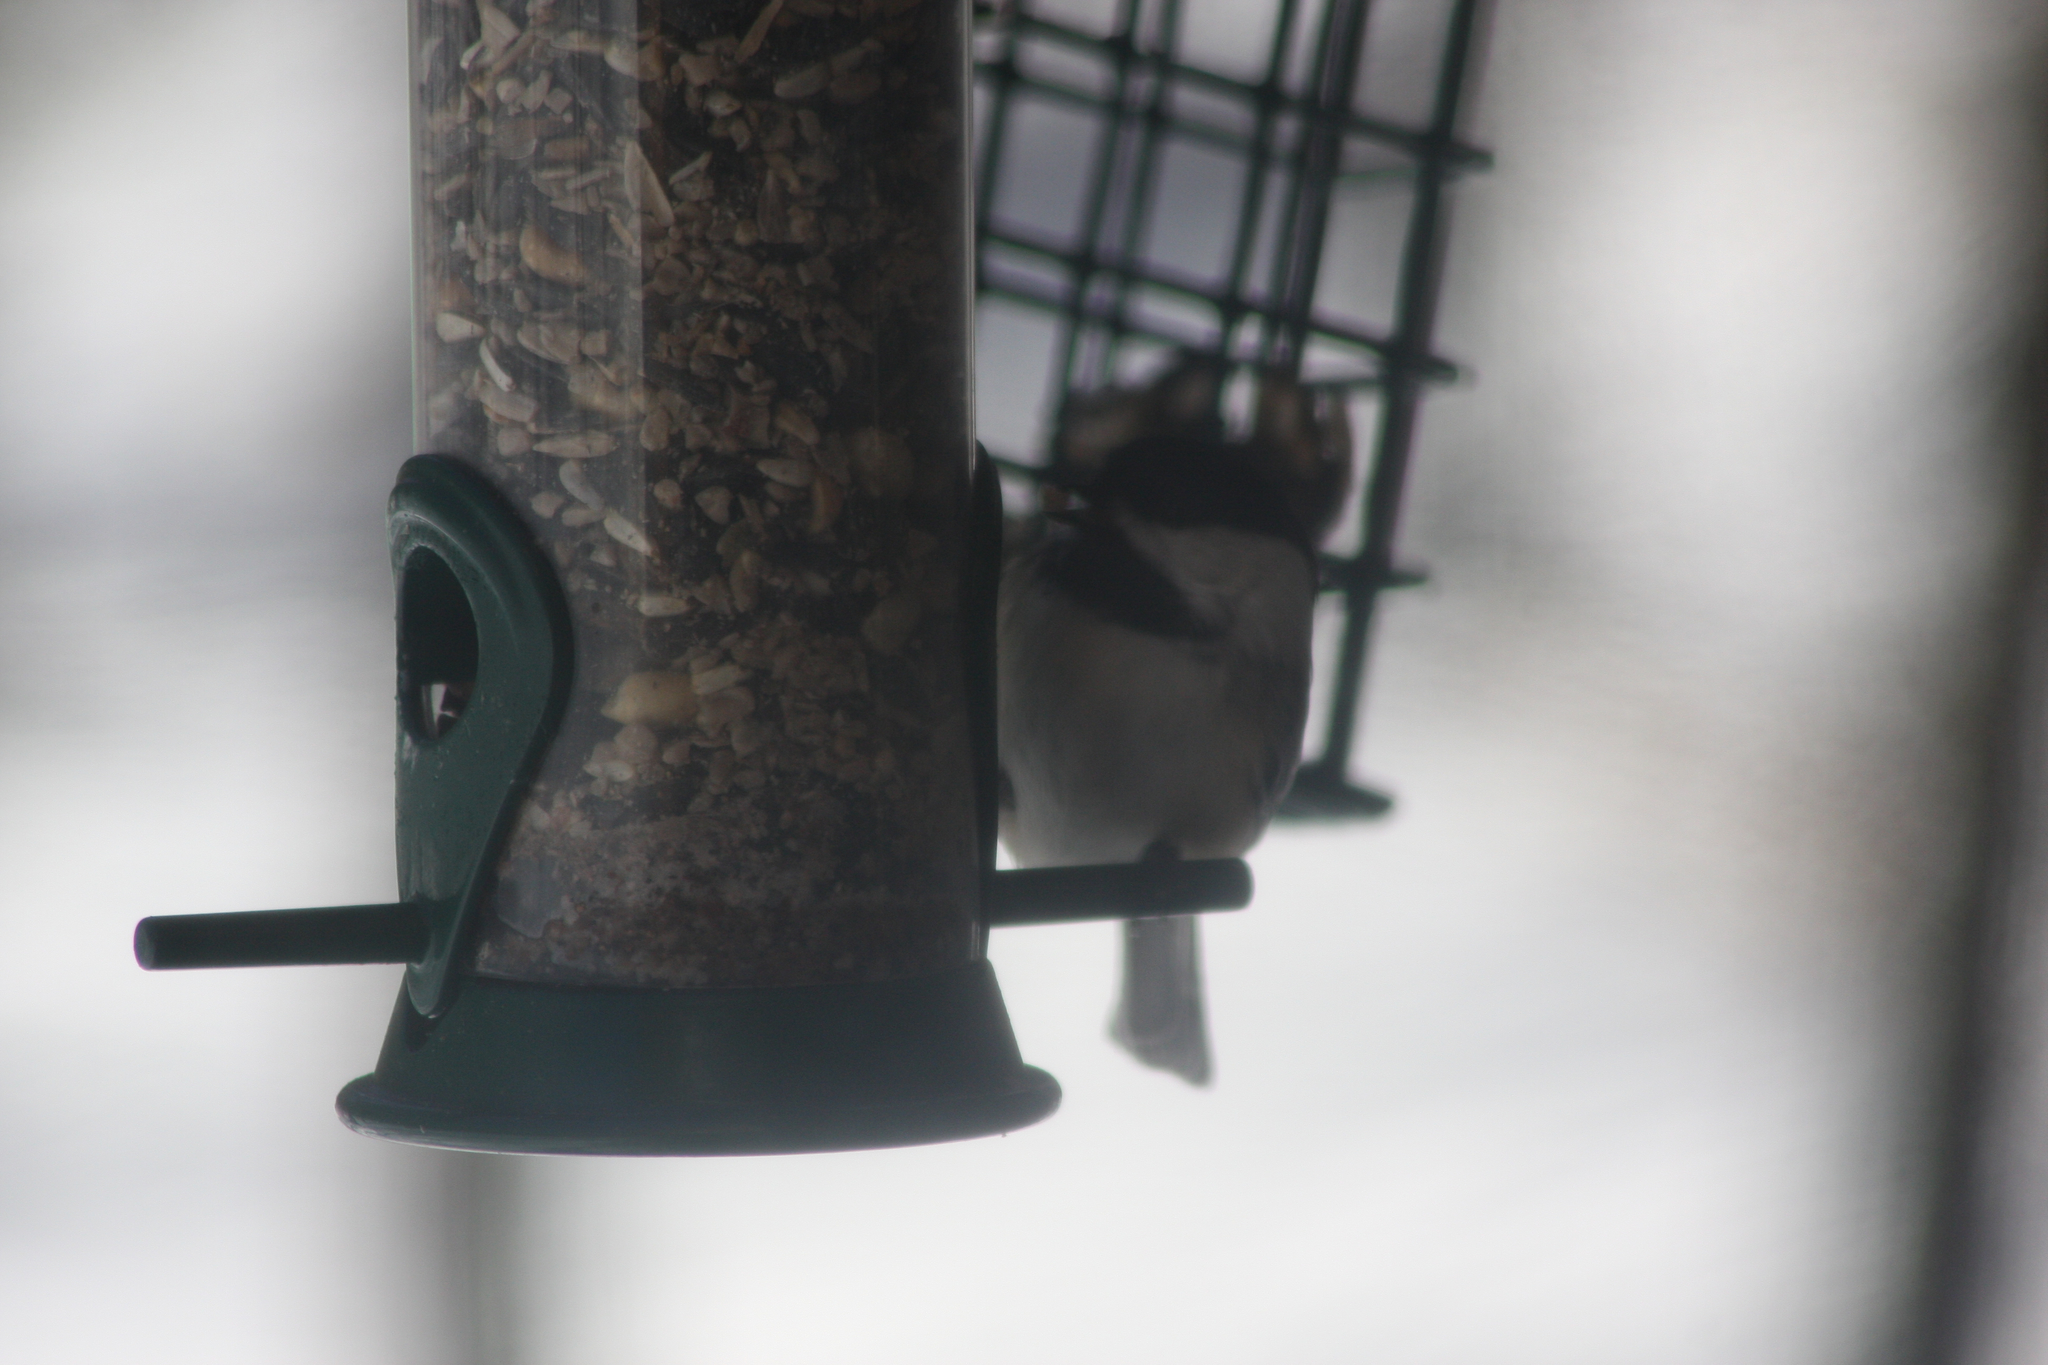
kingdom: Animalia
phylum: Chordata
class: Aves
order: Passeriformes
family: Paridae
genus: Poecile
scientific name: Poecile atricapillus
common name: Black-capped chickadee
